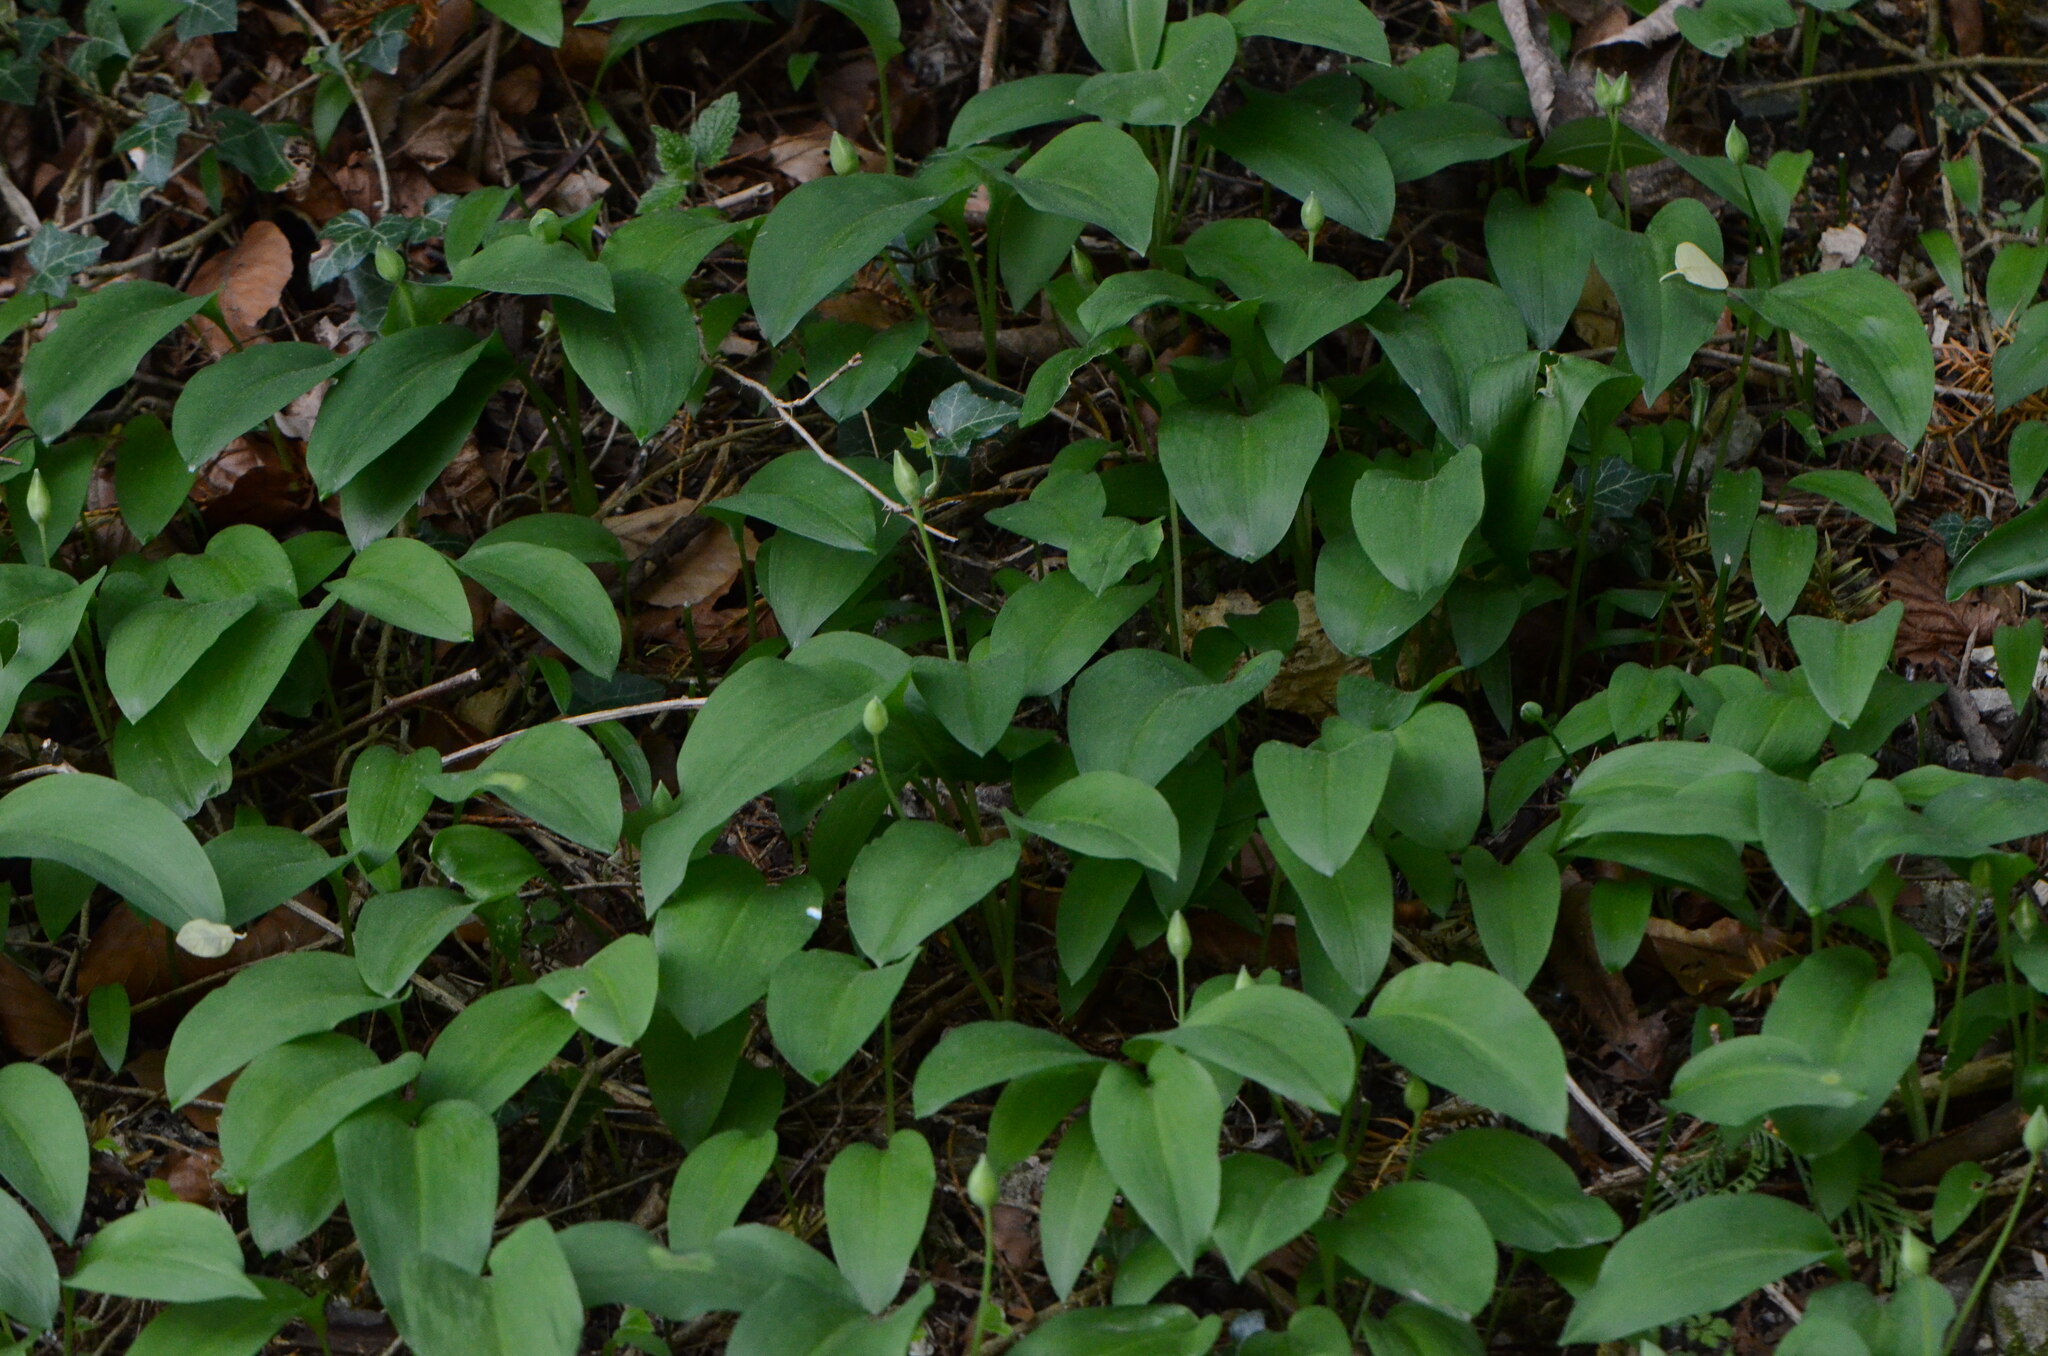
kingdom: Plantae
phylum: Tracheophyta
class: Liliopsida
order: Asparagales
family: Amaryllidaceae
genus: Allium
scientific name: Allium ursinum
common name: Ramsons
